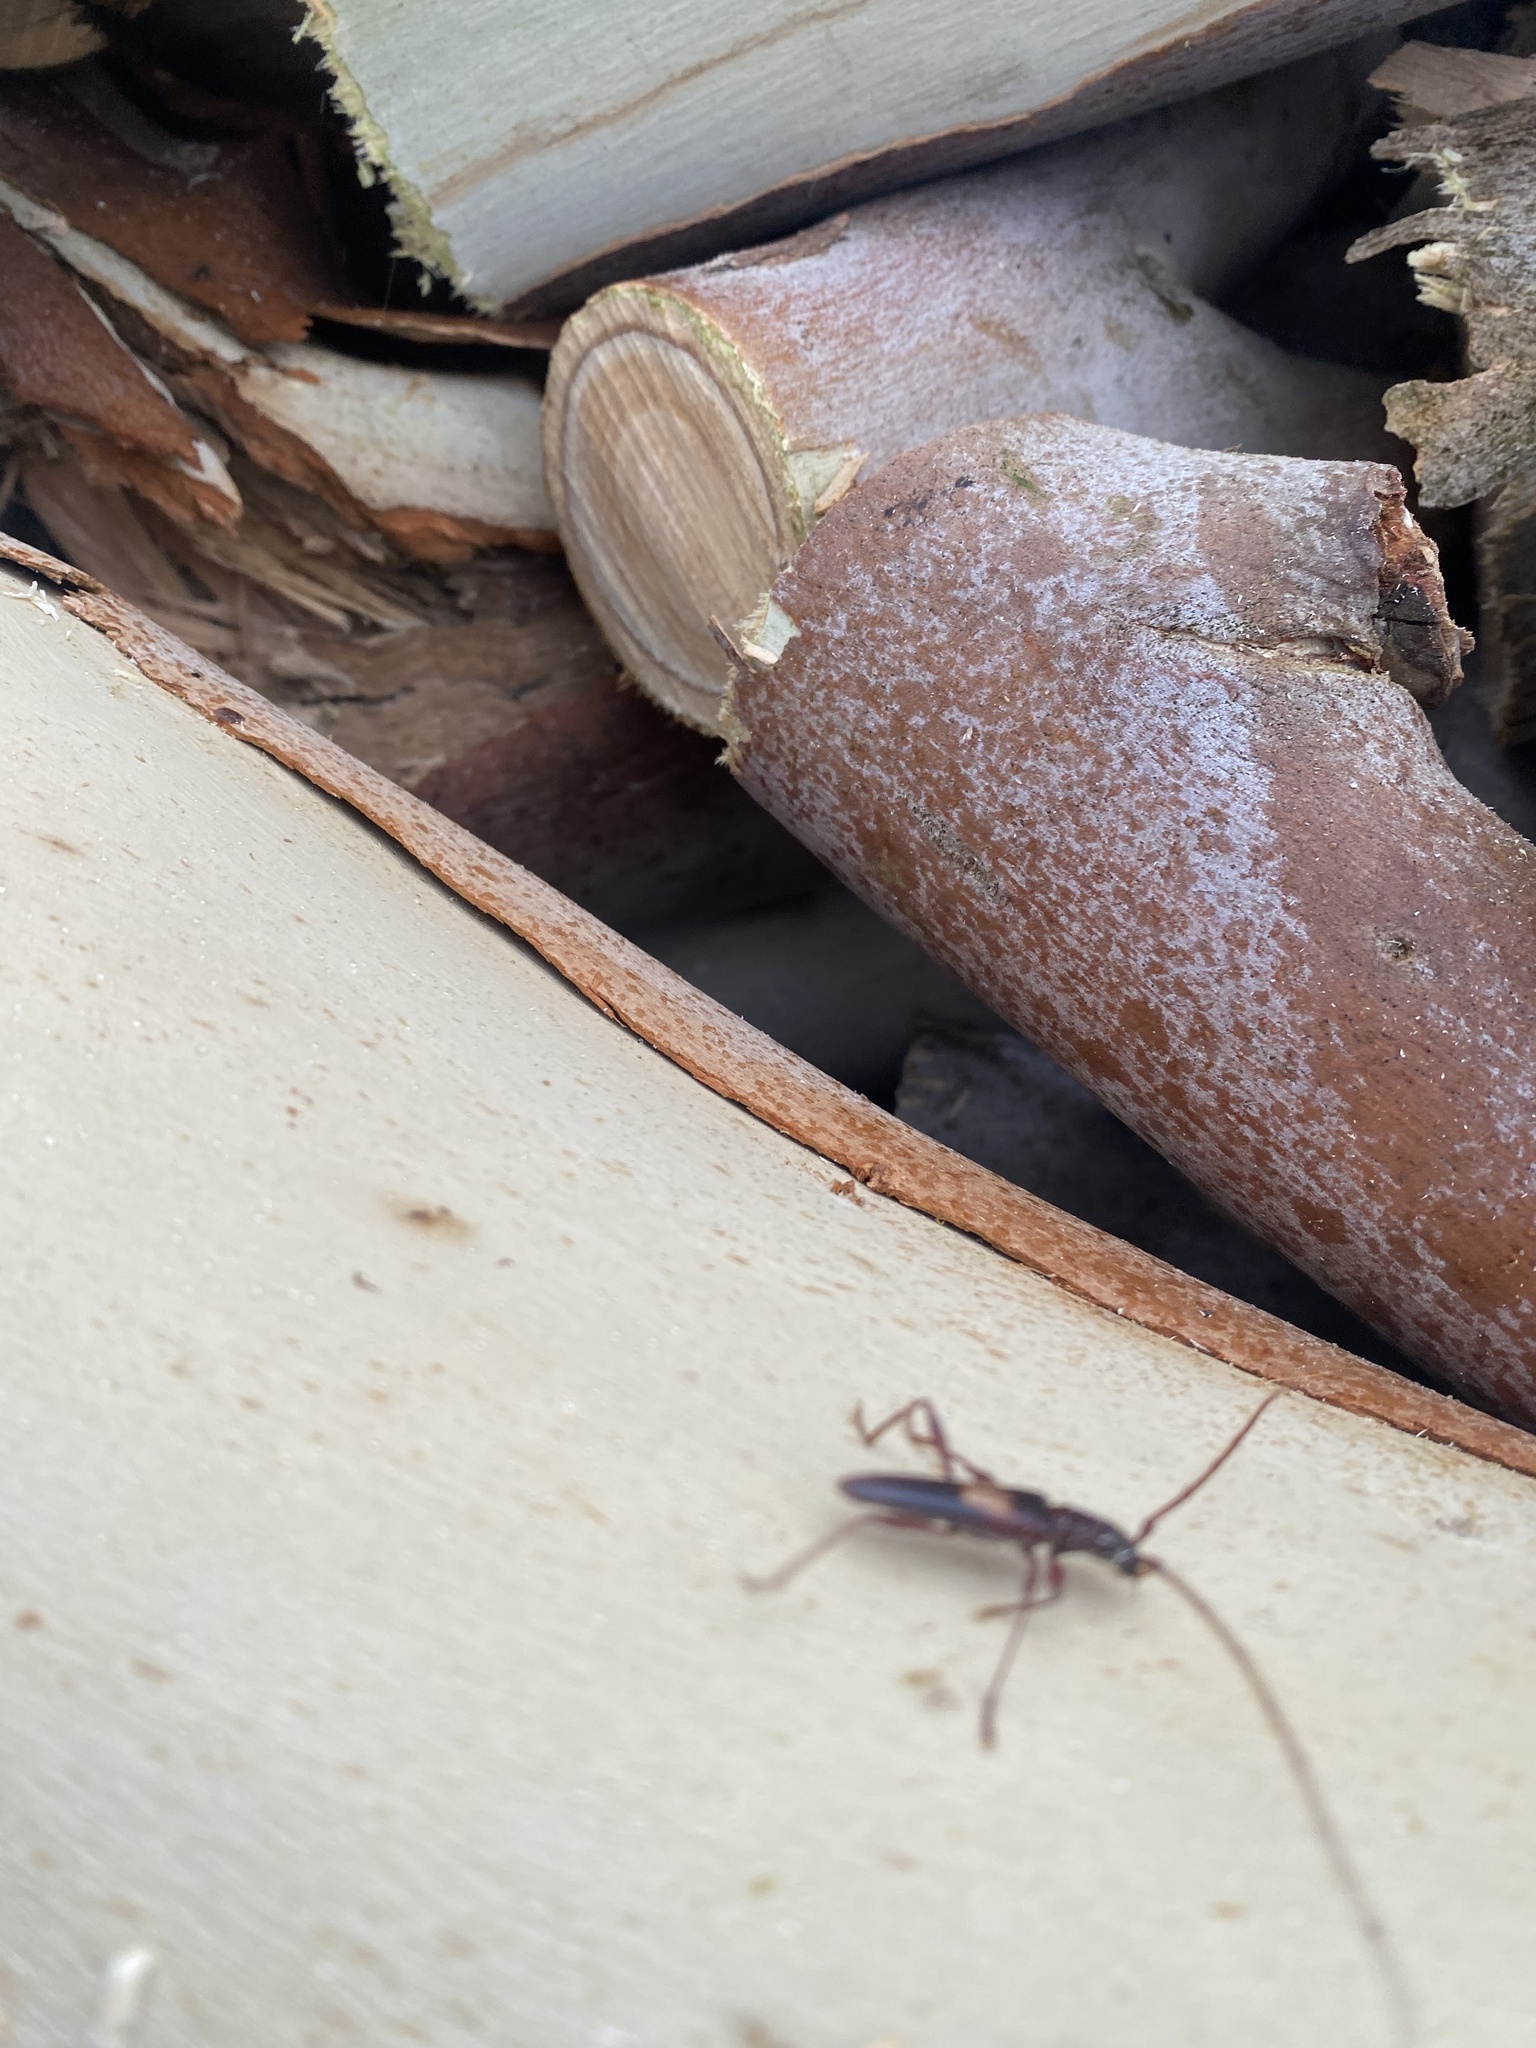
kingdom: Animalia
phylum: Arthropoda
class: Insecta
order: Coleoptera
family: Cerambycidae
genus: Epithora
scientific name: Epithora dorsalis
